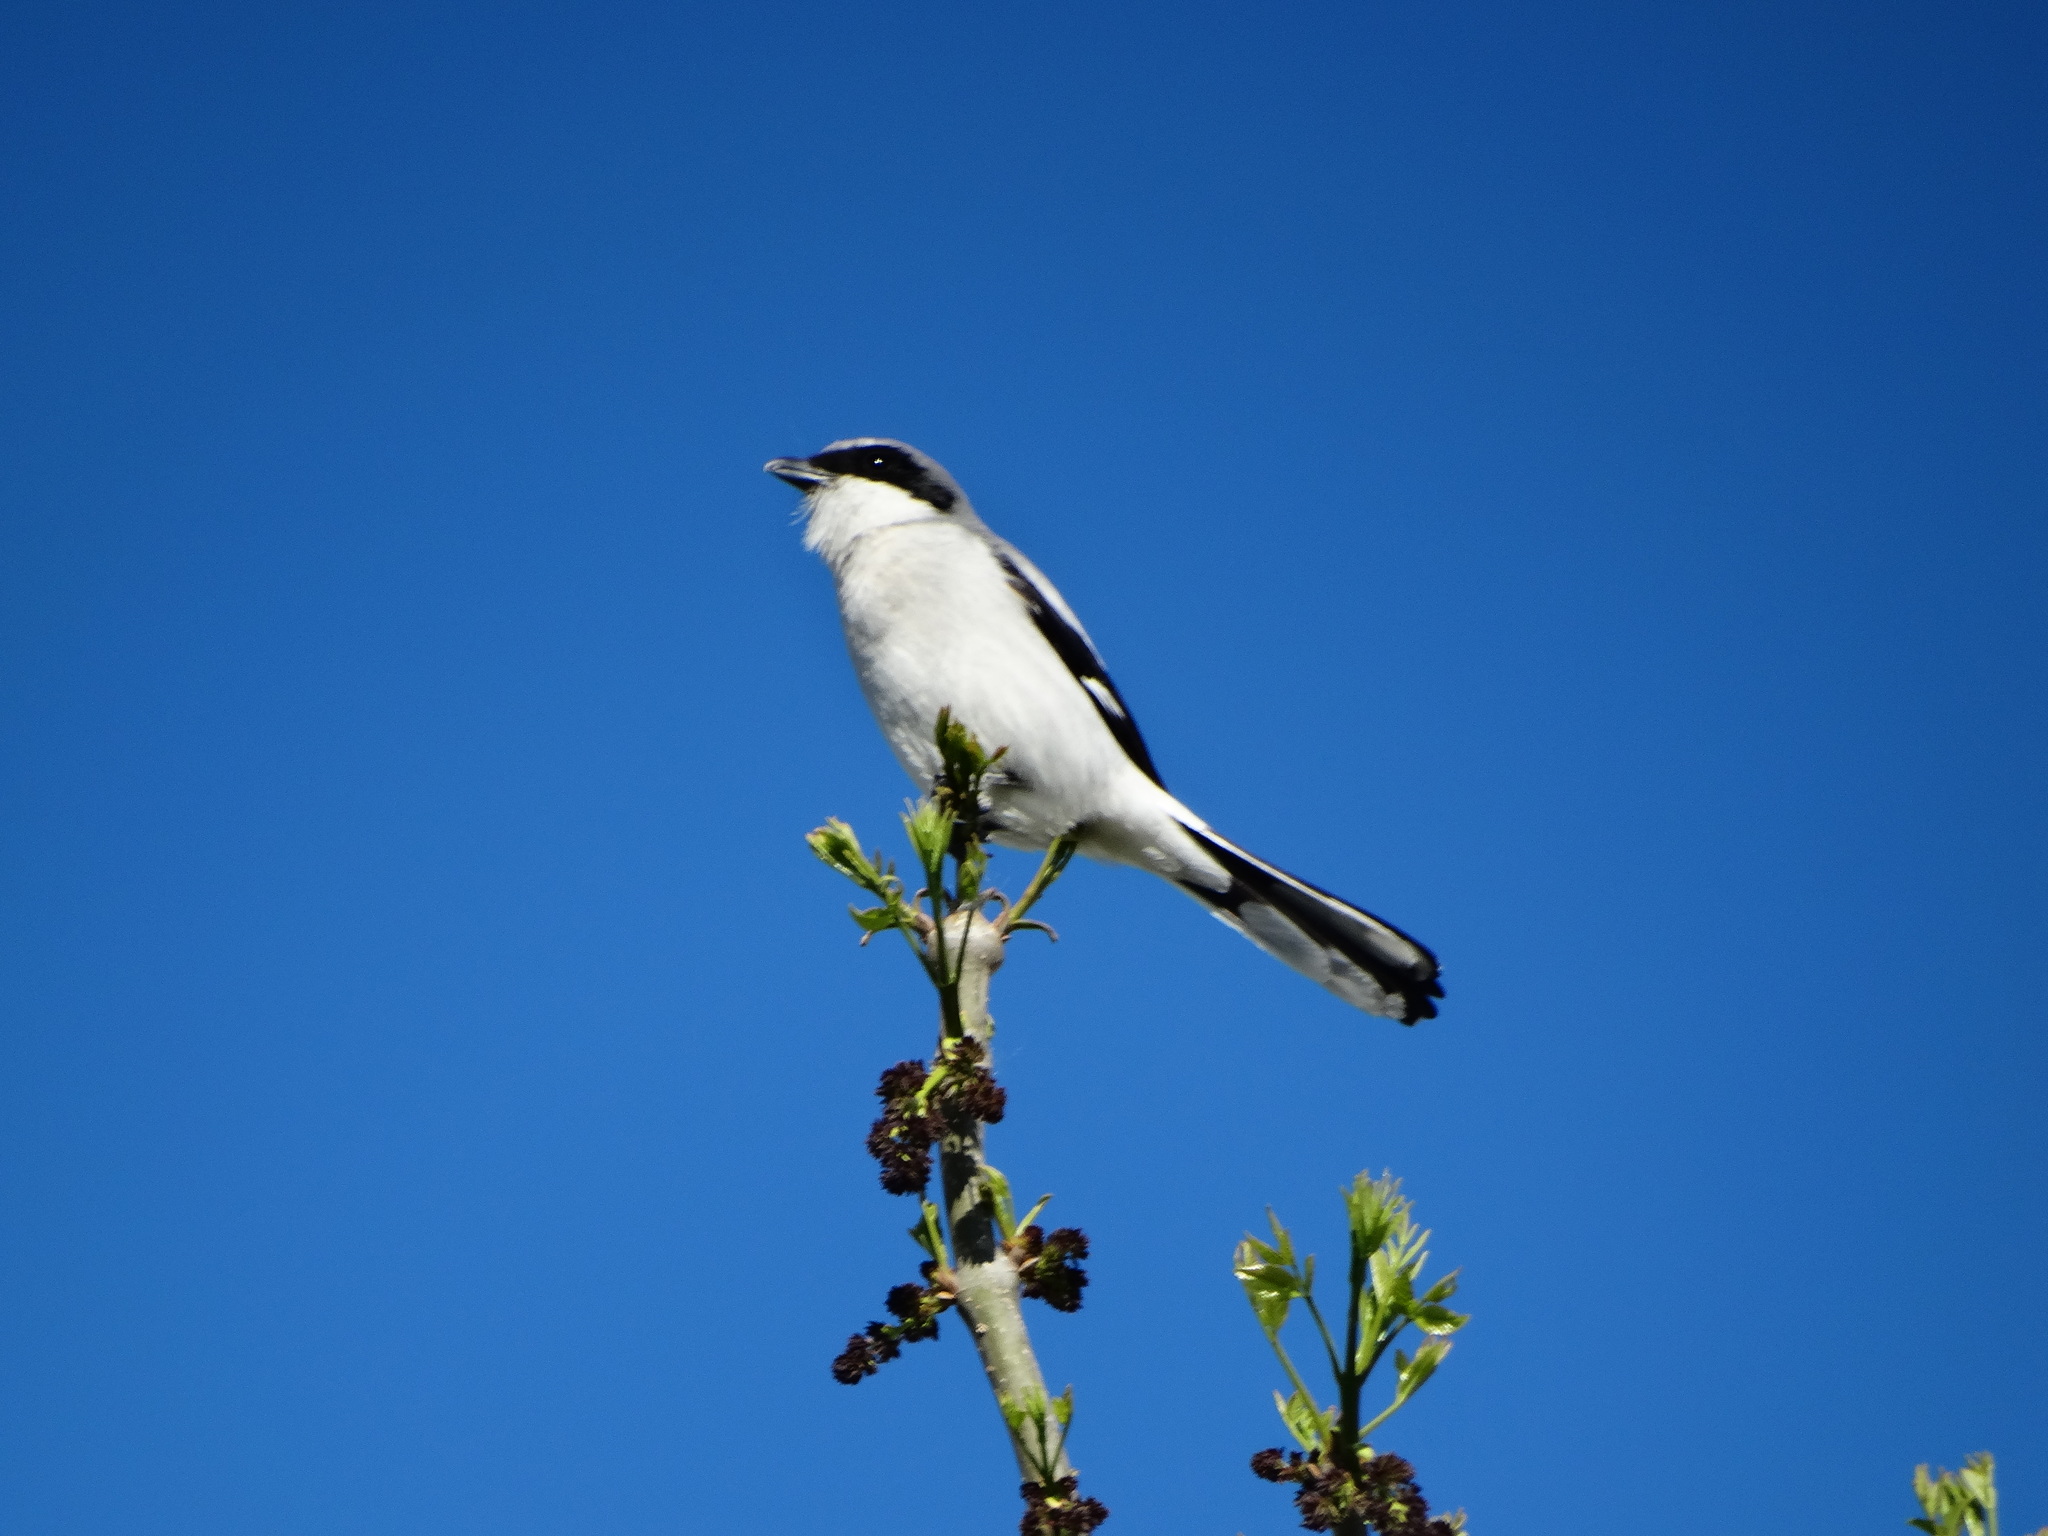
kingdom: Animalia
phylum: Chordata
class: Aves
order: Passeriformes
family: Laniidae
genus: Lanius
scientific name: Lanius ludovicianus
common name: Loggerhead shrike
